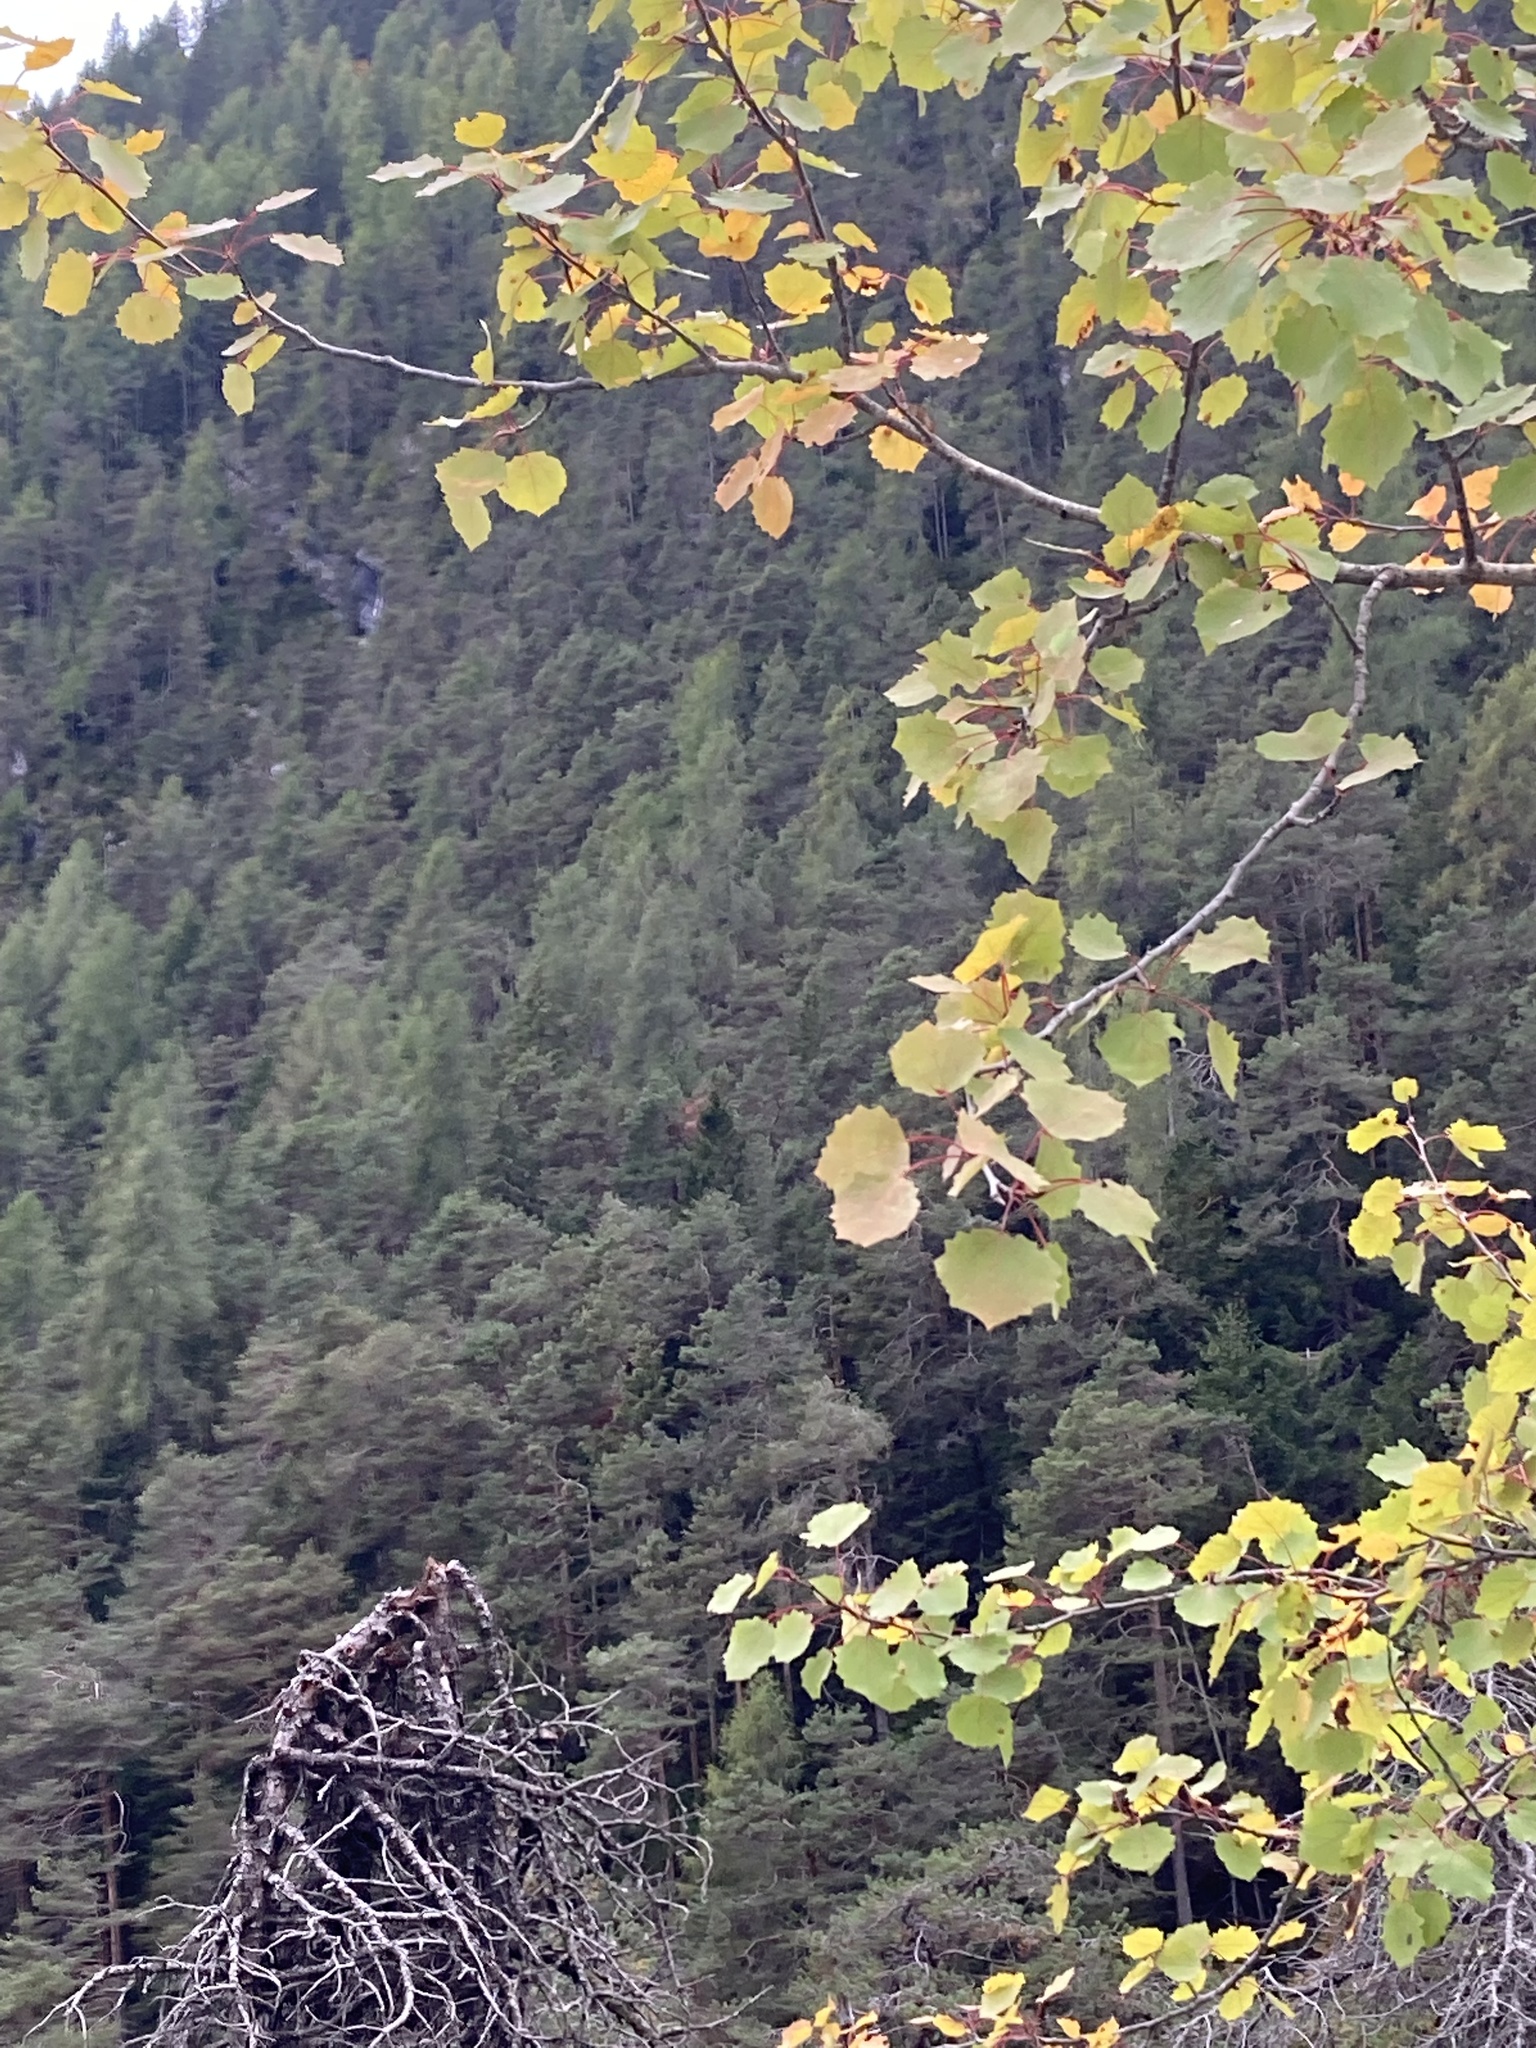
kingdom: Plantae
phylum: Tracheophyta
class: Magnoliopsida
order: Malpighiales
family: Salicaceae
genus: Populus
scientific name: Populus tremula
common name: European aspen
